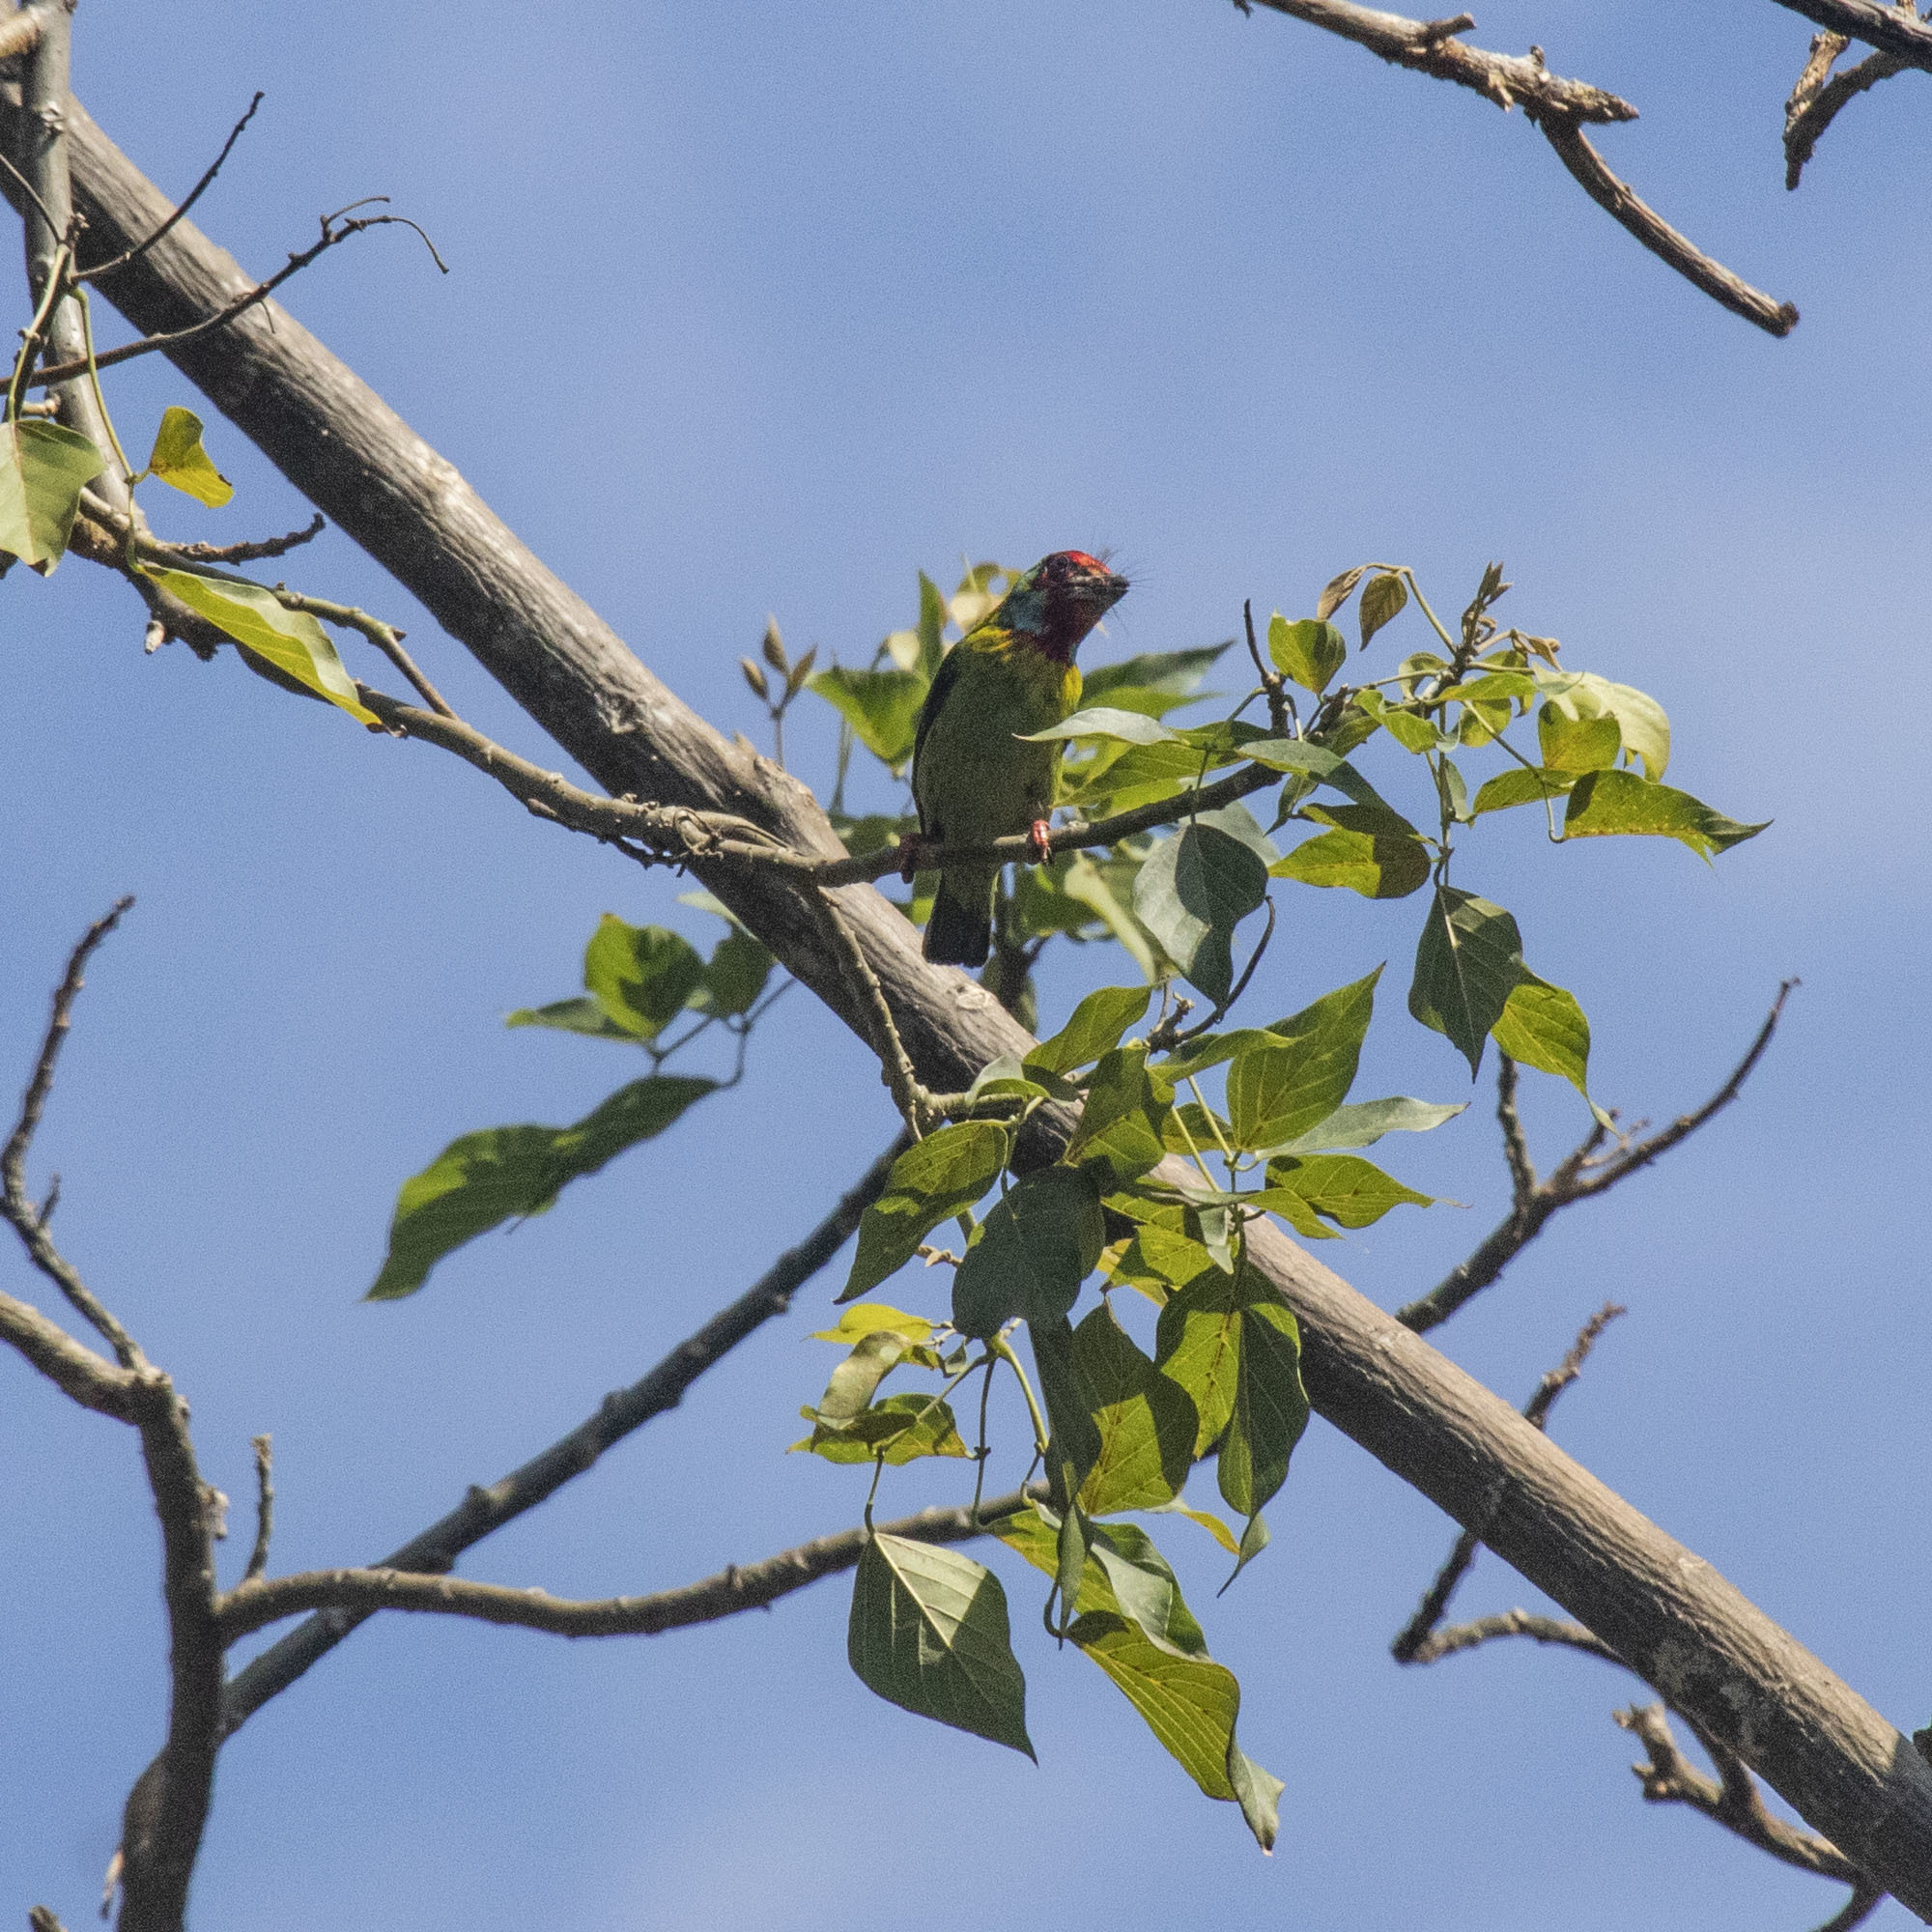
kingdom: Animalia
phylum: Chordata
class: Aves
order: Piciformes
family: Megalaimidae
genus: Psilopogon
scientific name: Psilopogon malabaricus
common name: Malabar barbet
